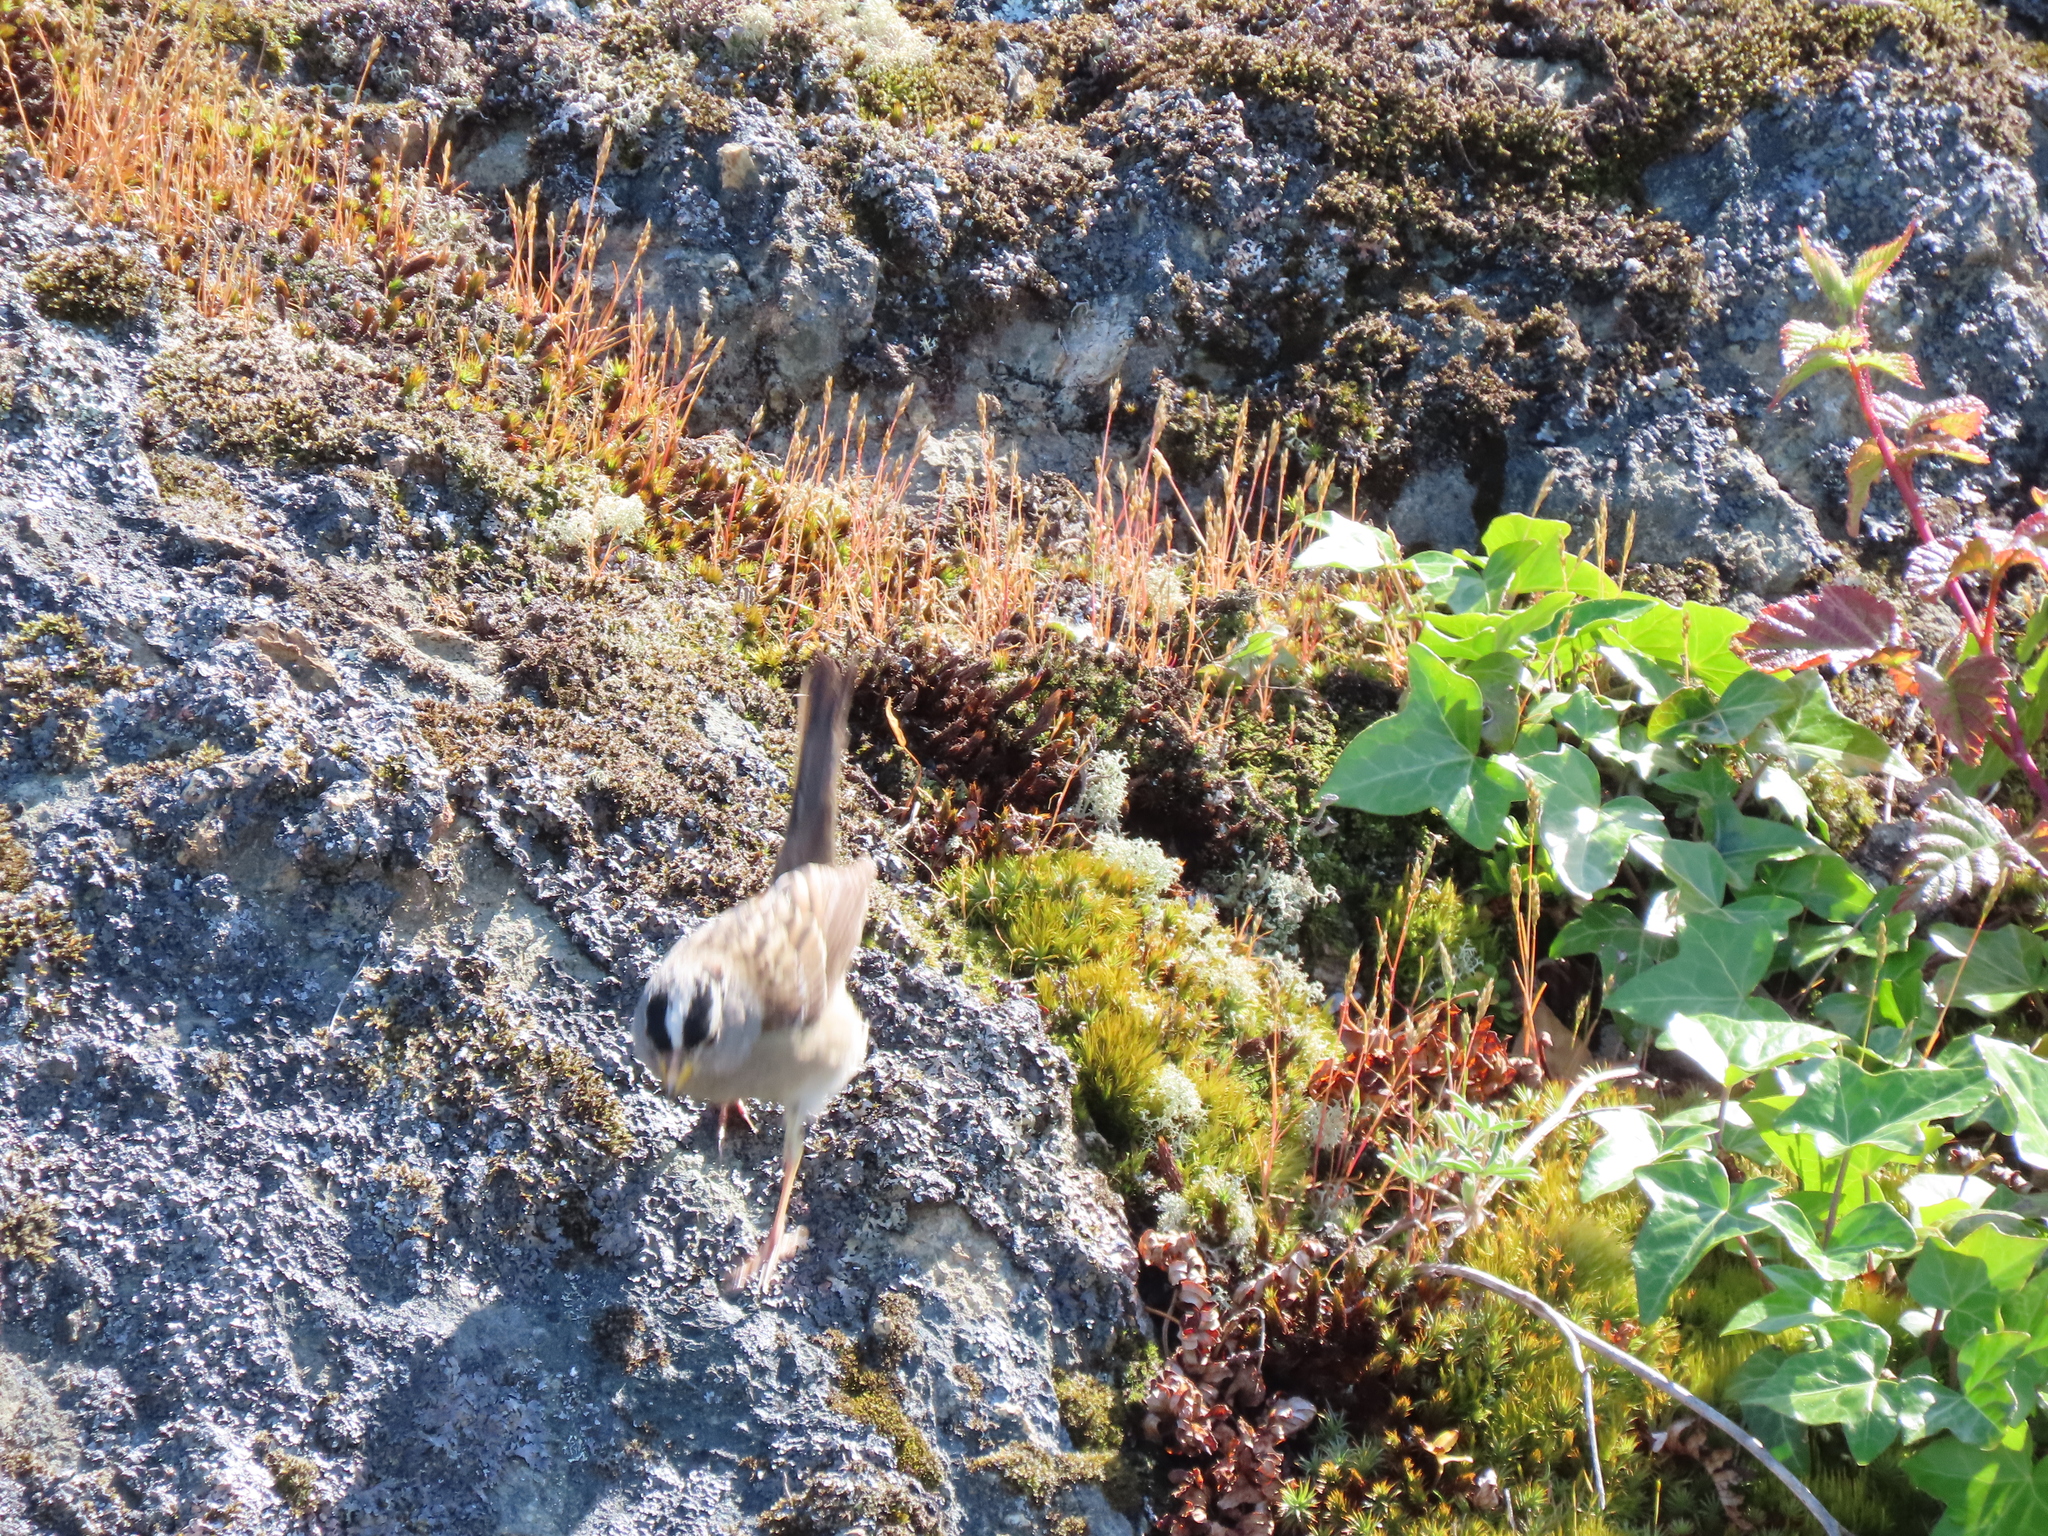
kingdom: Animalia
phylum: Chordata
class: Aves
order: Passeriformes
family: Passerellidae
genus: Zonotrichia
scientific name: Zonotrichia leucophrys
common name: White-crowned sparrow
